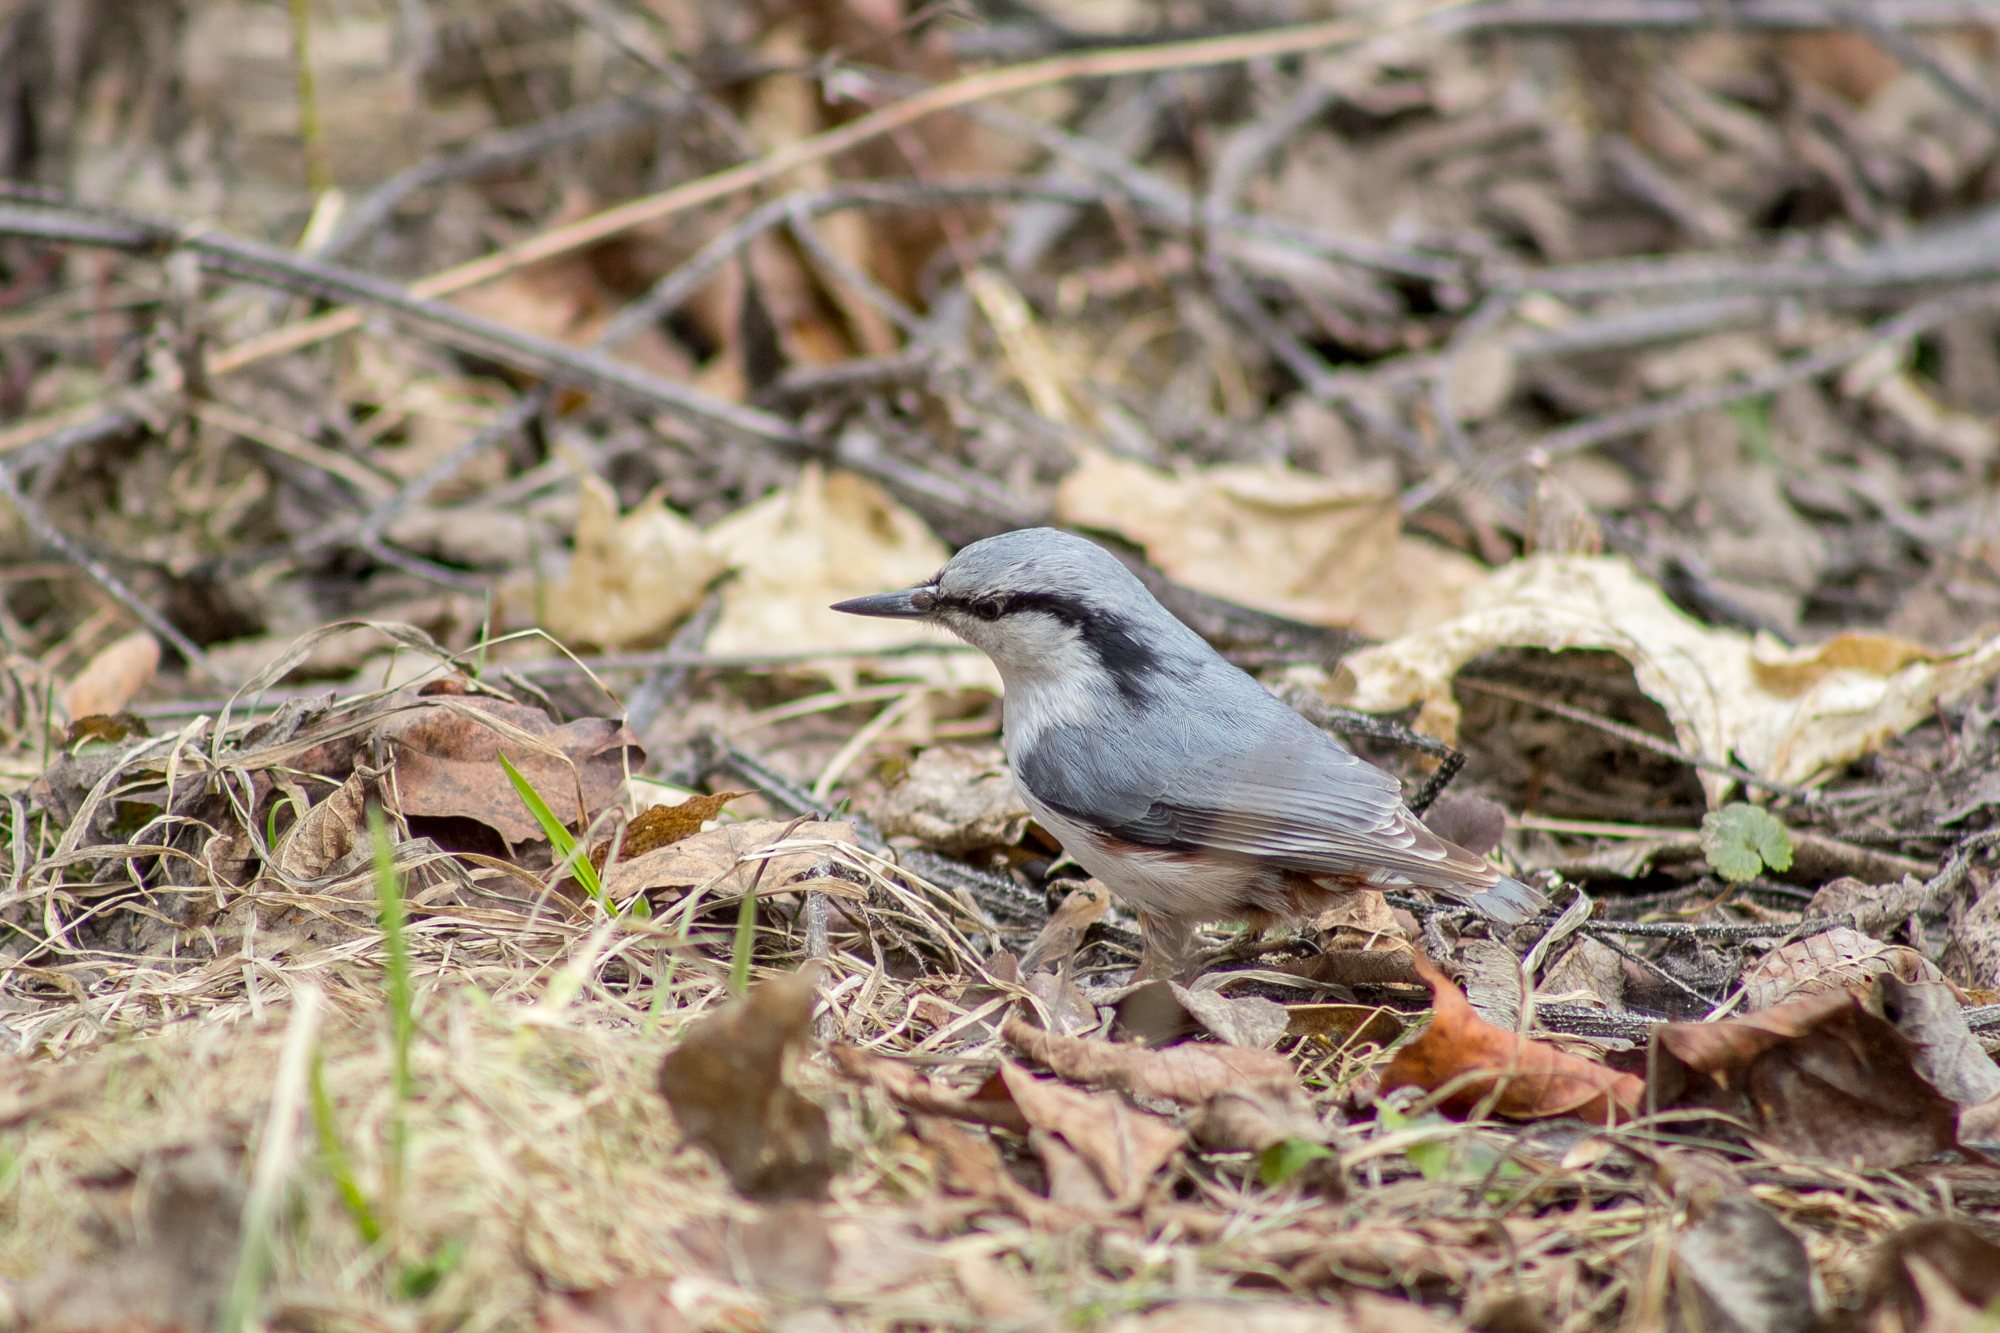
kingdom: Animalia
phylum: Chordata
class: Aves
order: Passeriformes
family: Sittidae
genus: Sitta
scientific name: Sitta europaea
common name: Eurasian nuthatch
